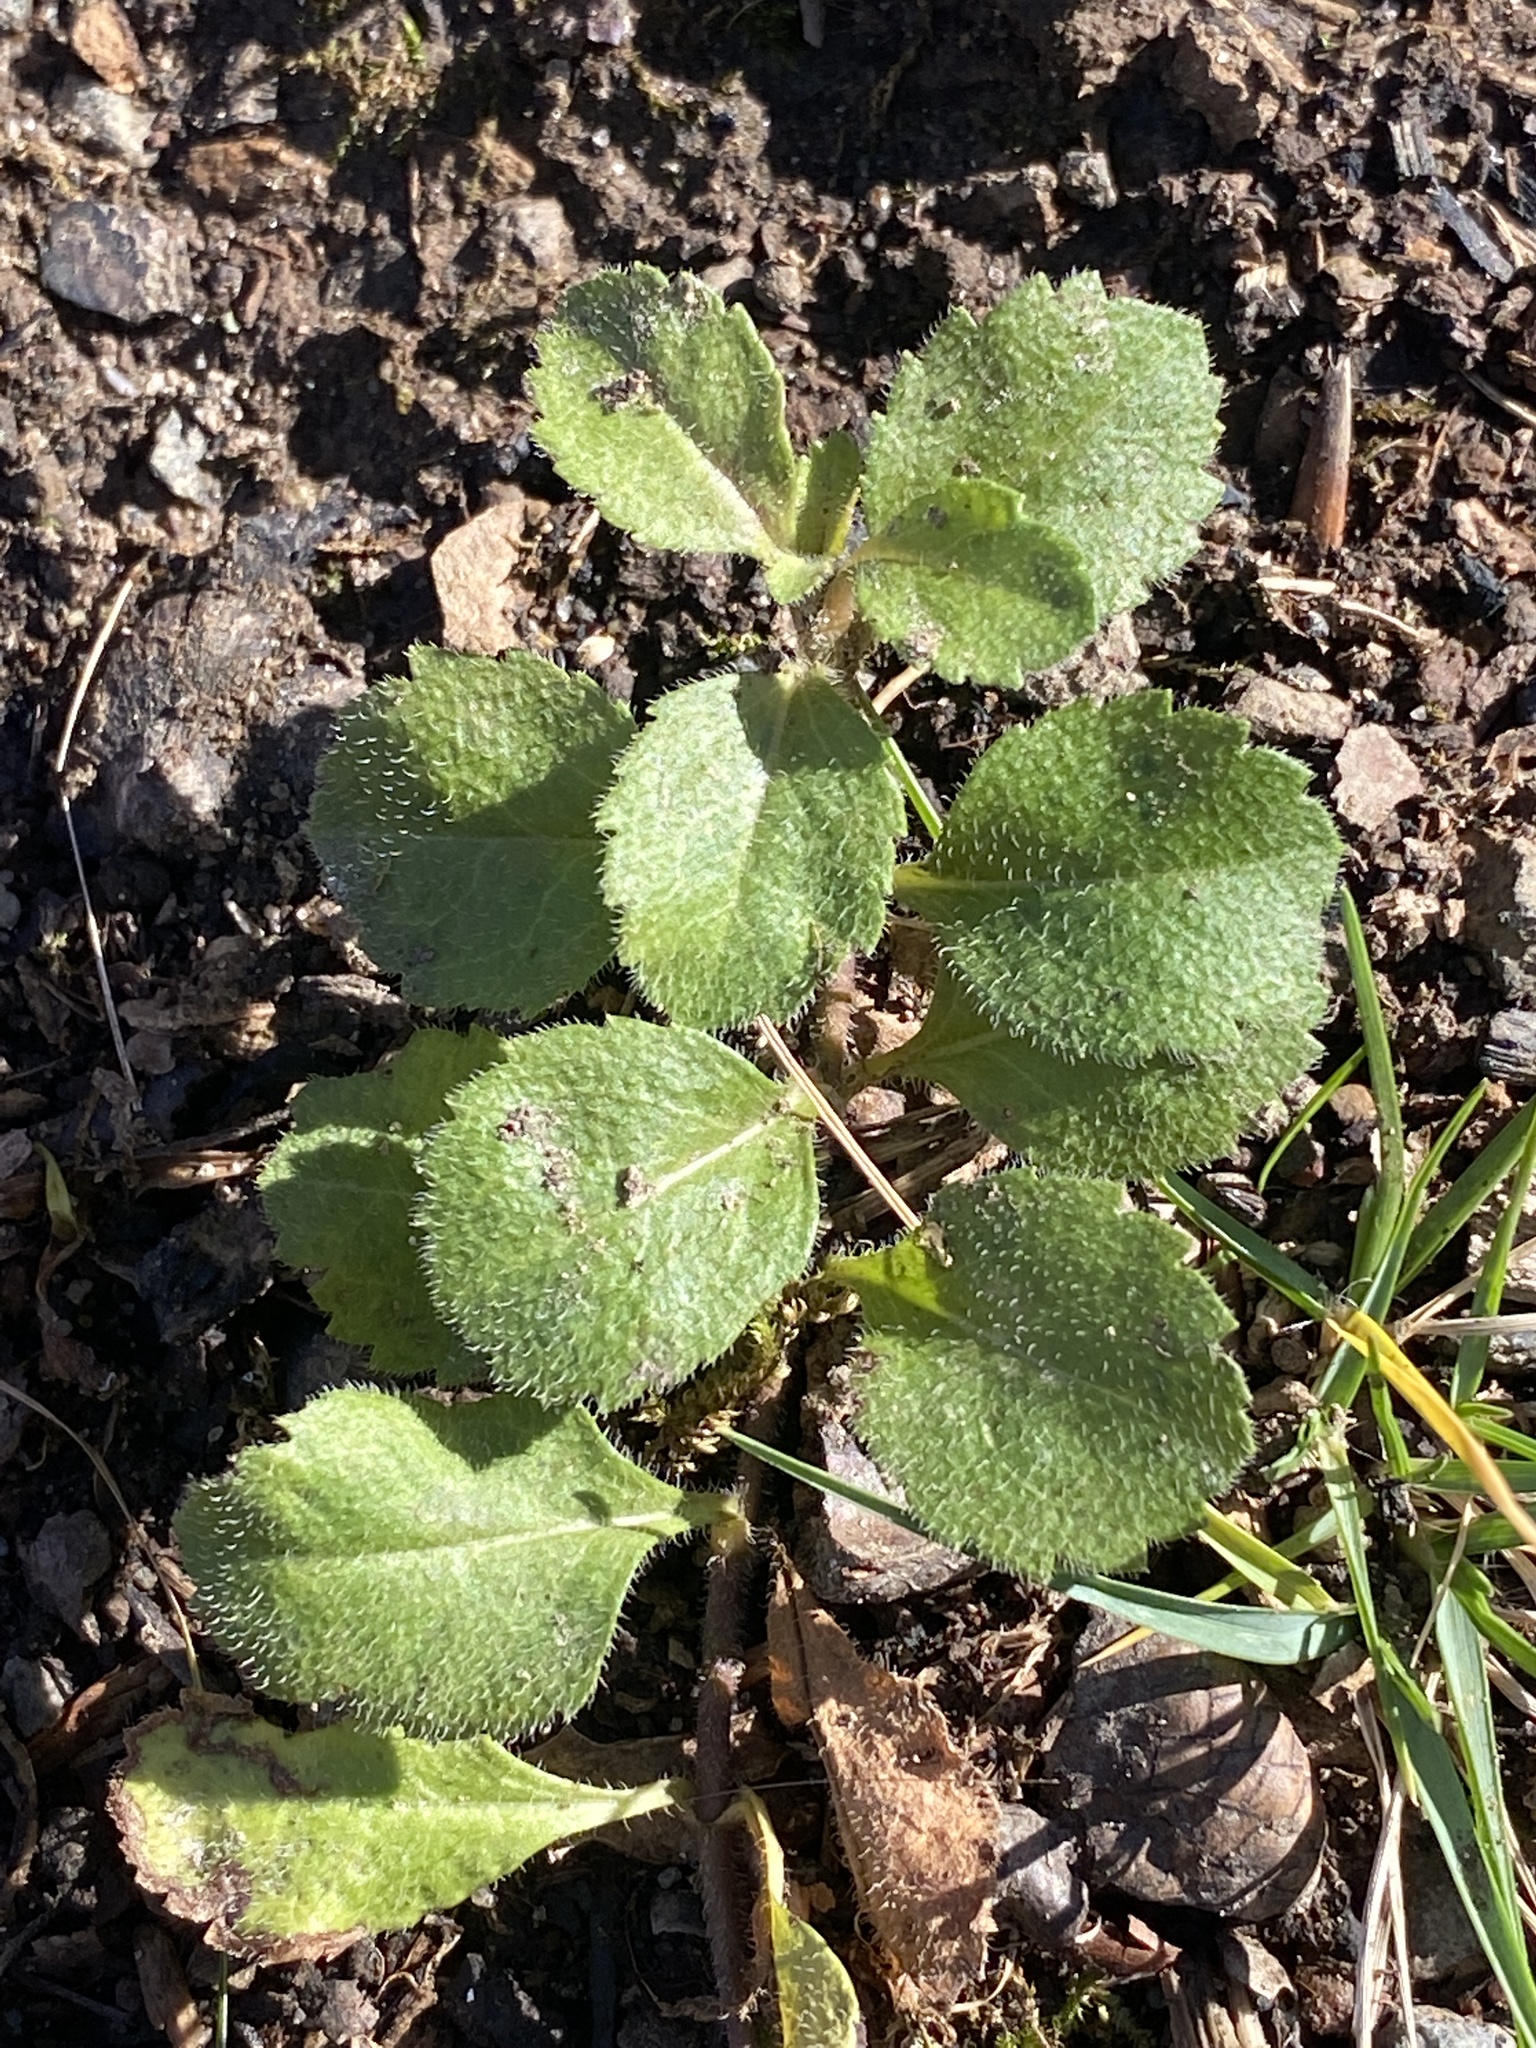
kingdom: Plantae
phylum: Tracheophyta
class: Magnoliopsida
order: Lamiales
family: Plantaginaceae
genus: Veronica
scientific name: Veronica officinalis
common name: Common speedwell
